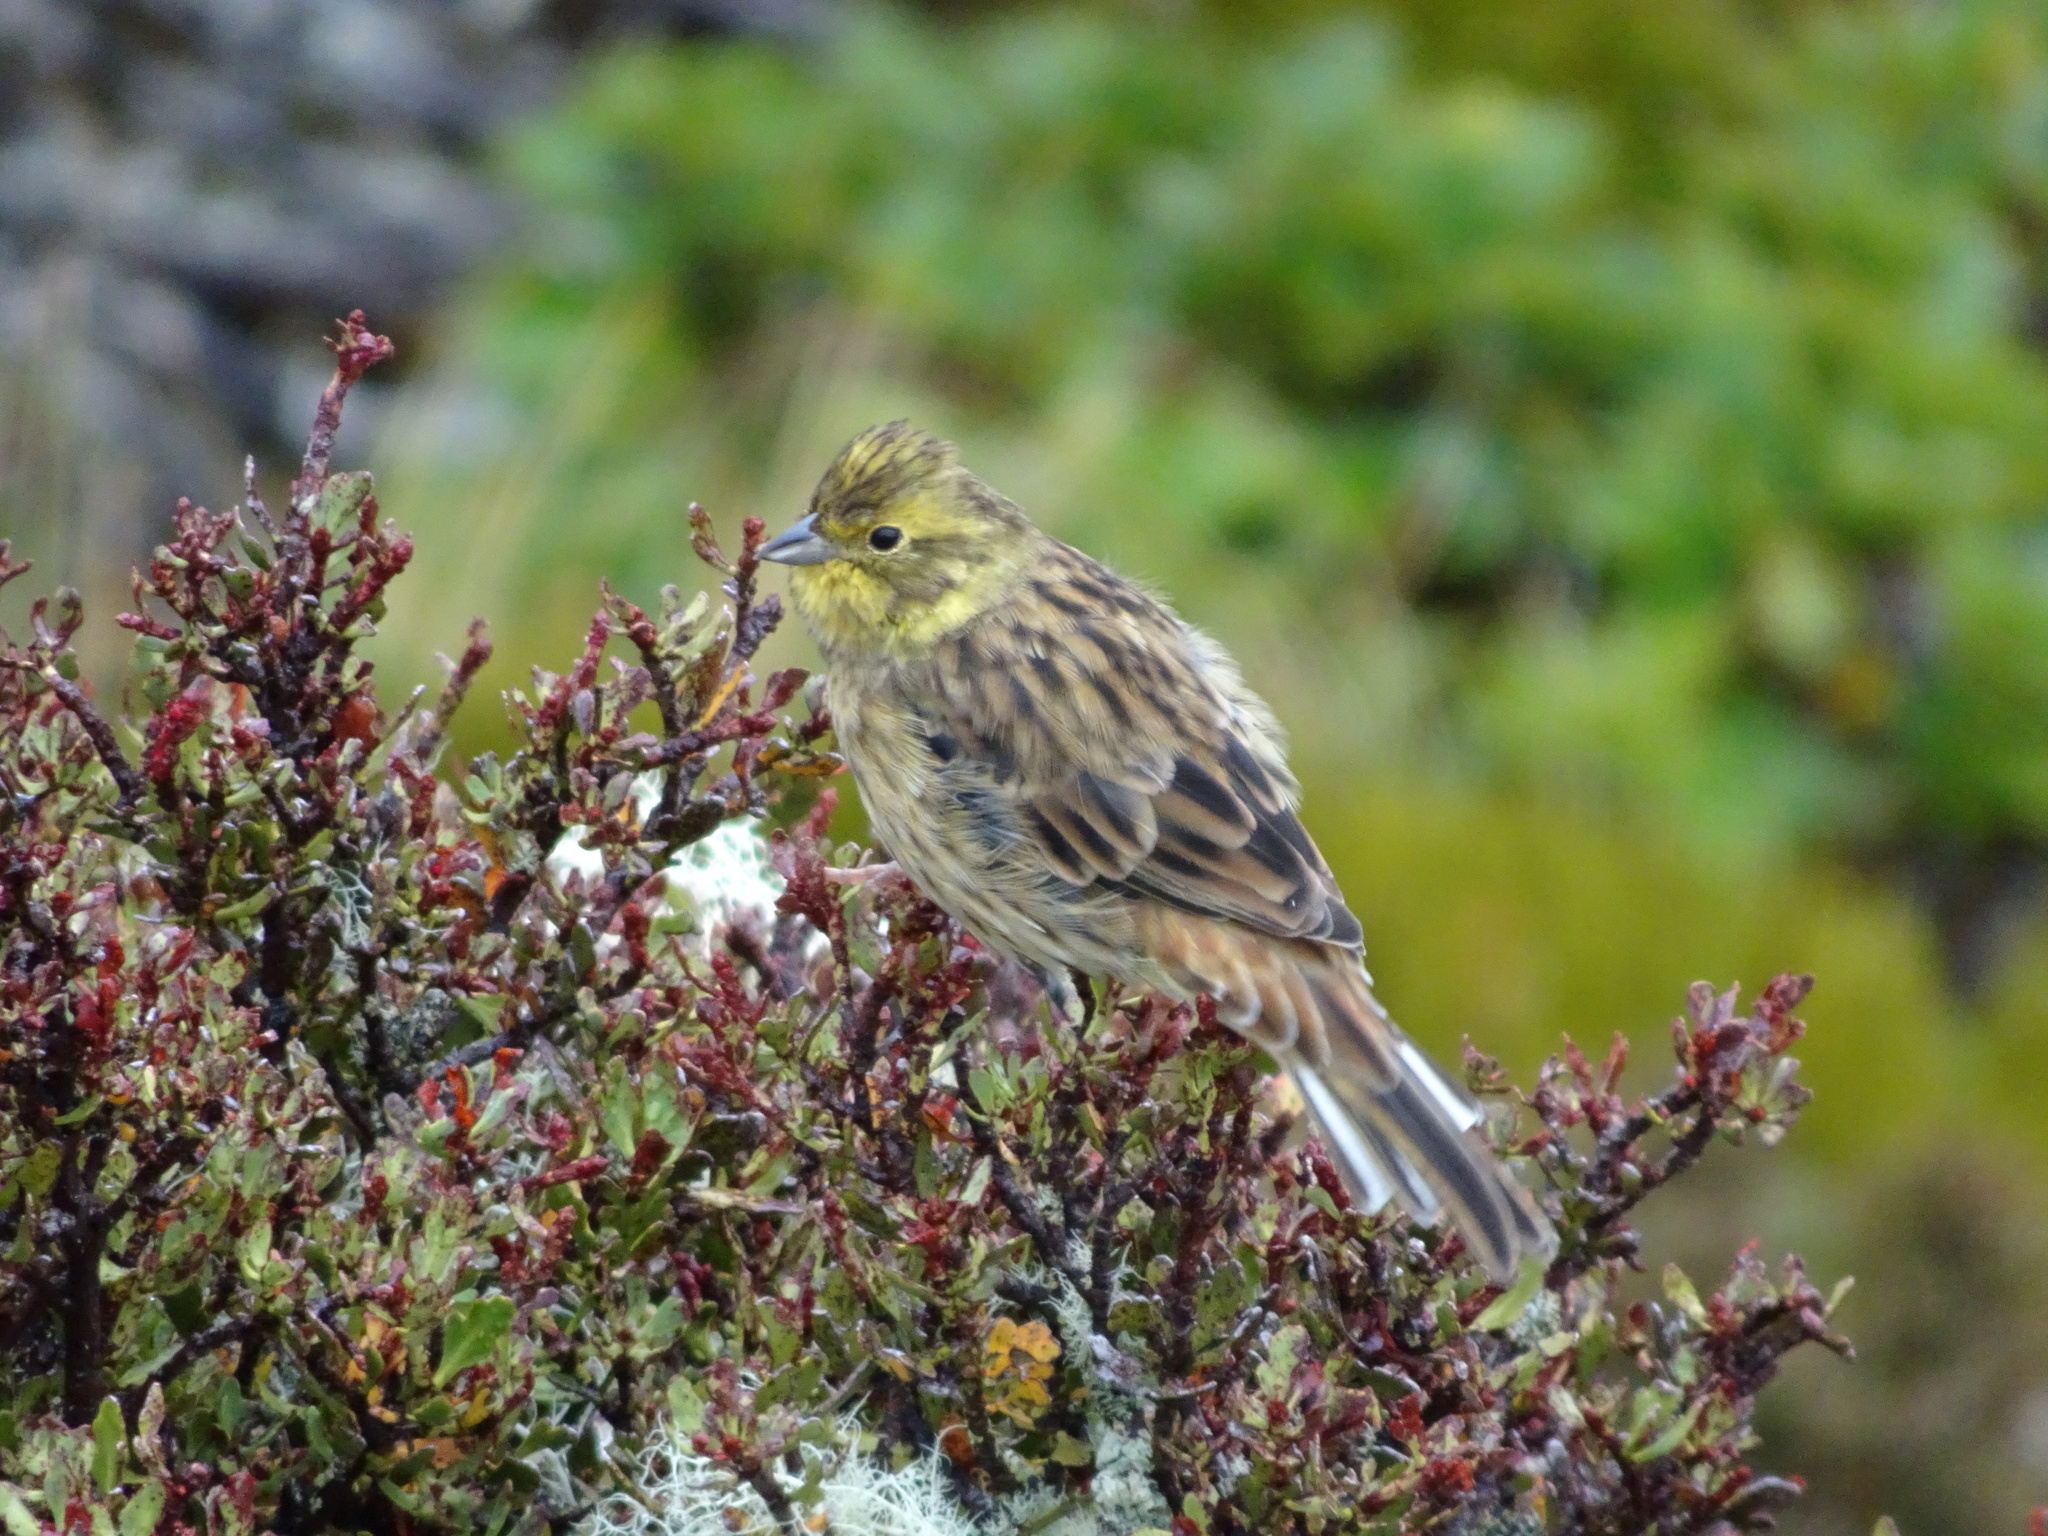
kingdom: Animalia
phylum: Chordata
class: Aves
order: Passeriformes
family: Emberizidae
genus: Emberiza
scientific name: Emberiza citrinella
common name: Yellowhammer
